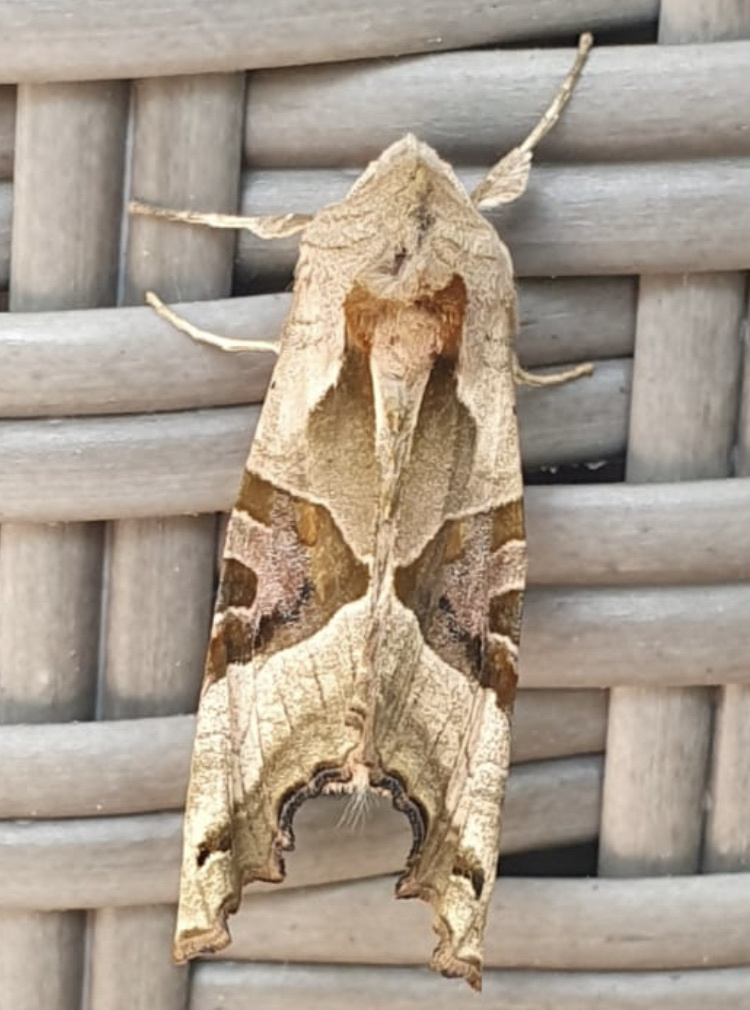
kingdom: Animalia
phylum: Arthropoda
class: Insecta
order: Lepidoptera
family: Noctuidae
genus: Phlogophora
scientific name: Phlogophora meticulosa
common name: Angle shades
